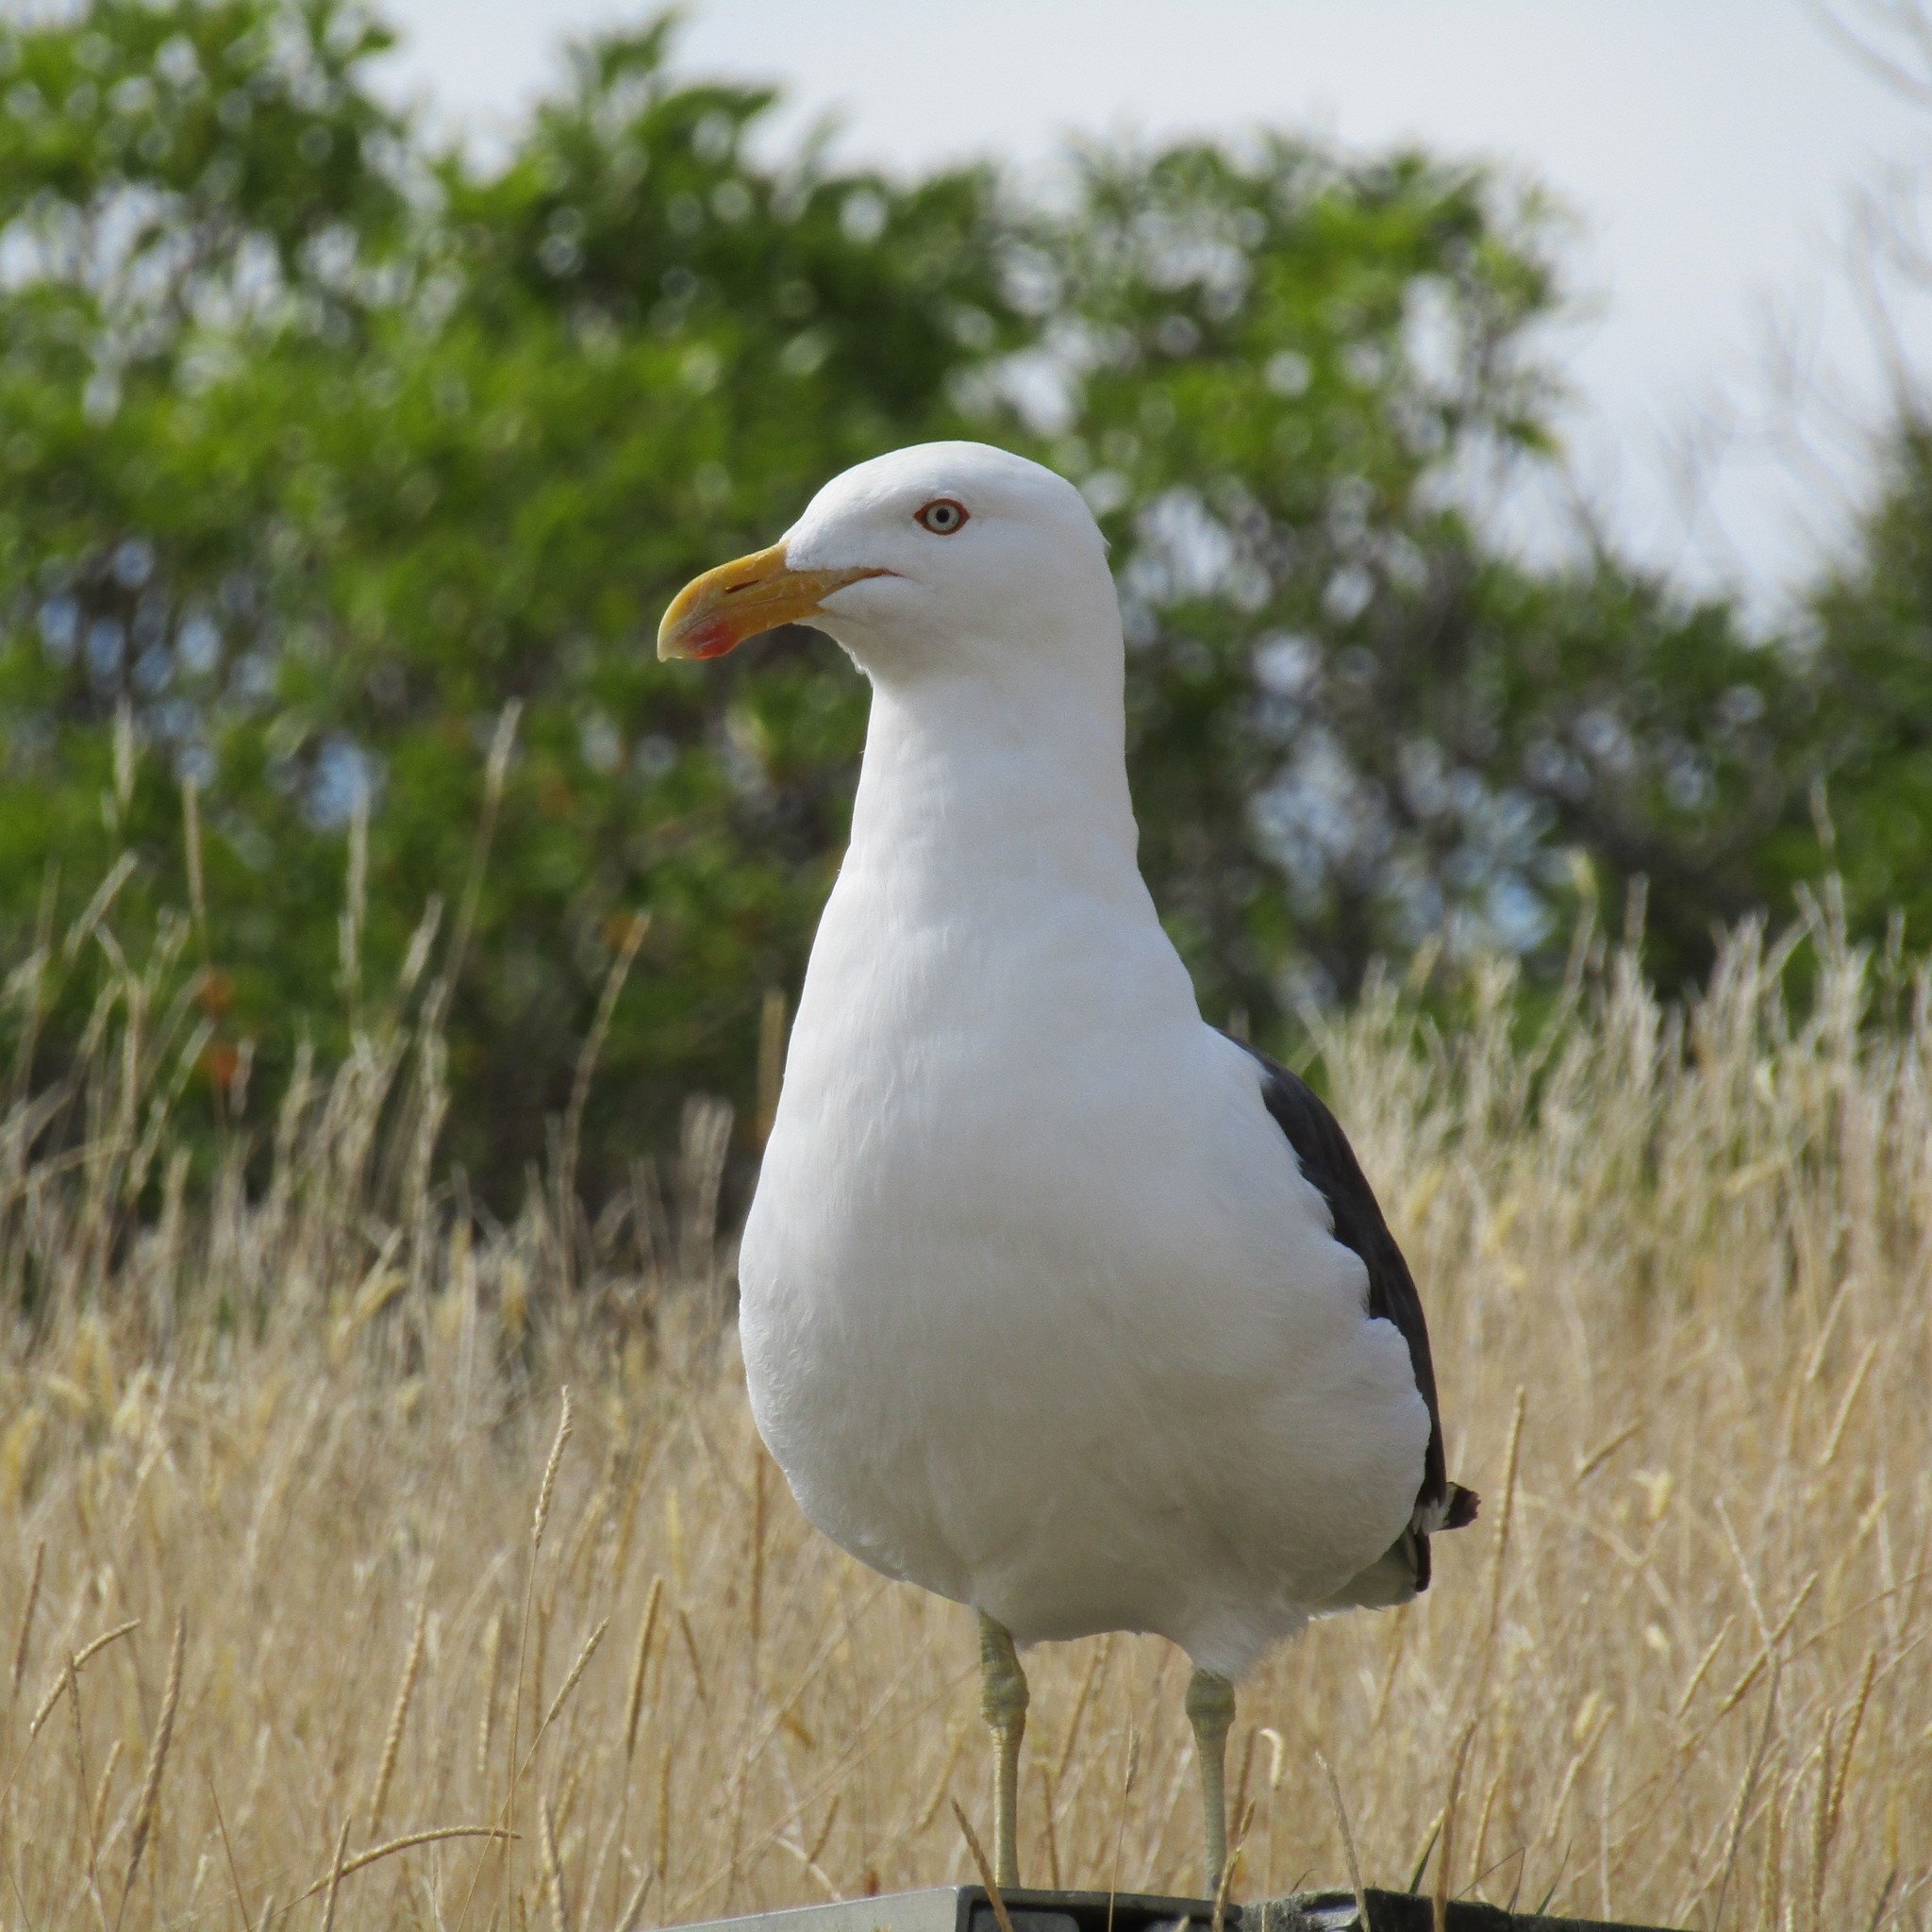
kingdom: Animalia
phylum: Chordata
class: Aves
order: Charadriiformes
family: Laridae
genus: Larus
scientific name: Larus dominicanus
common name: Kelp gull
